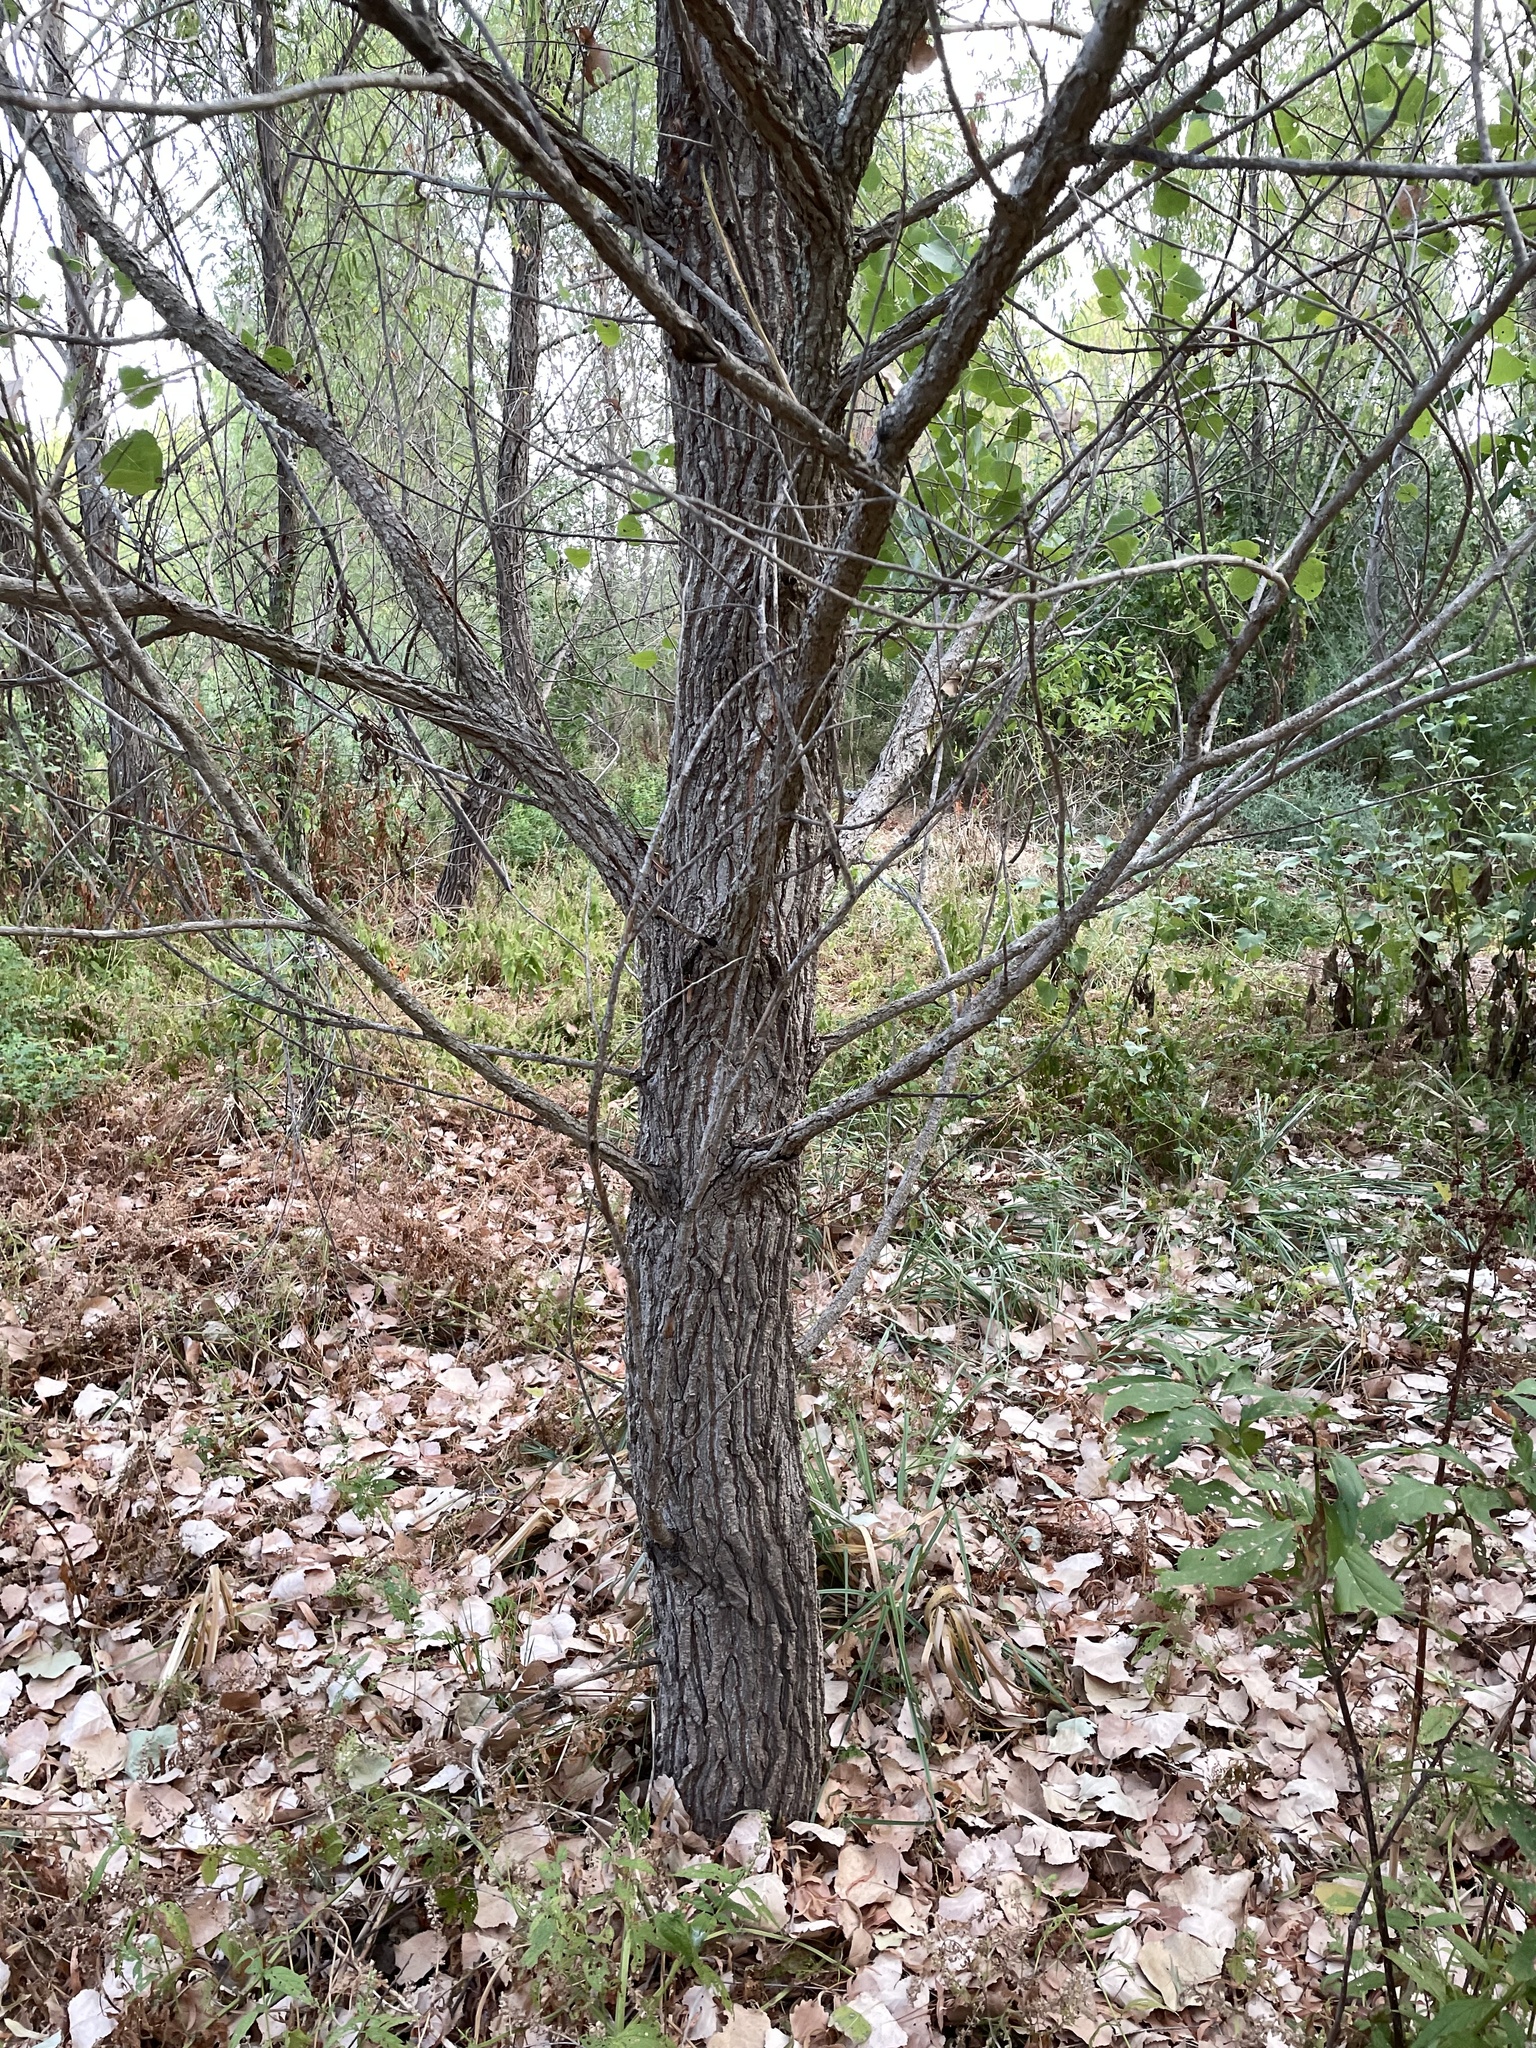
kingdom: Plantae
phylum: Tracheophyta
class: Magnoliopsida
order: Malpighiales
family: Salicaceae
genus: Populus
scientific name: Populus deltoides
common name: Eastern cottonwood
